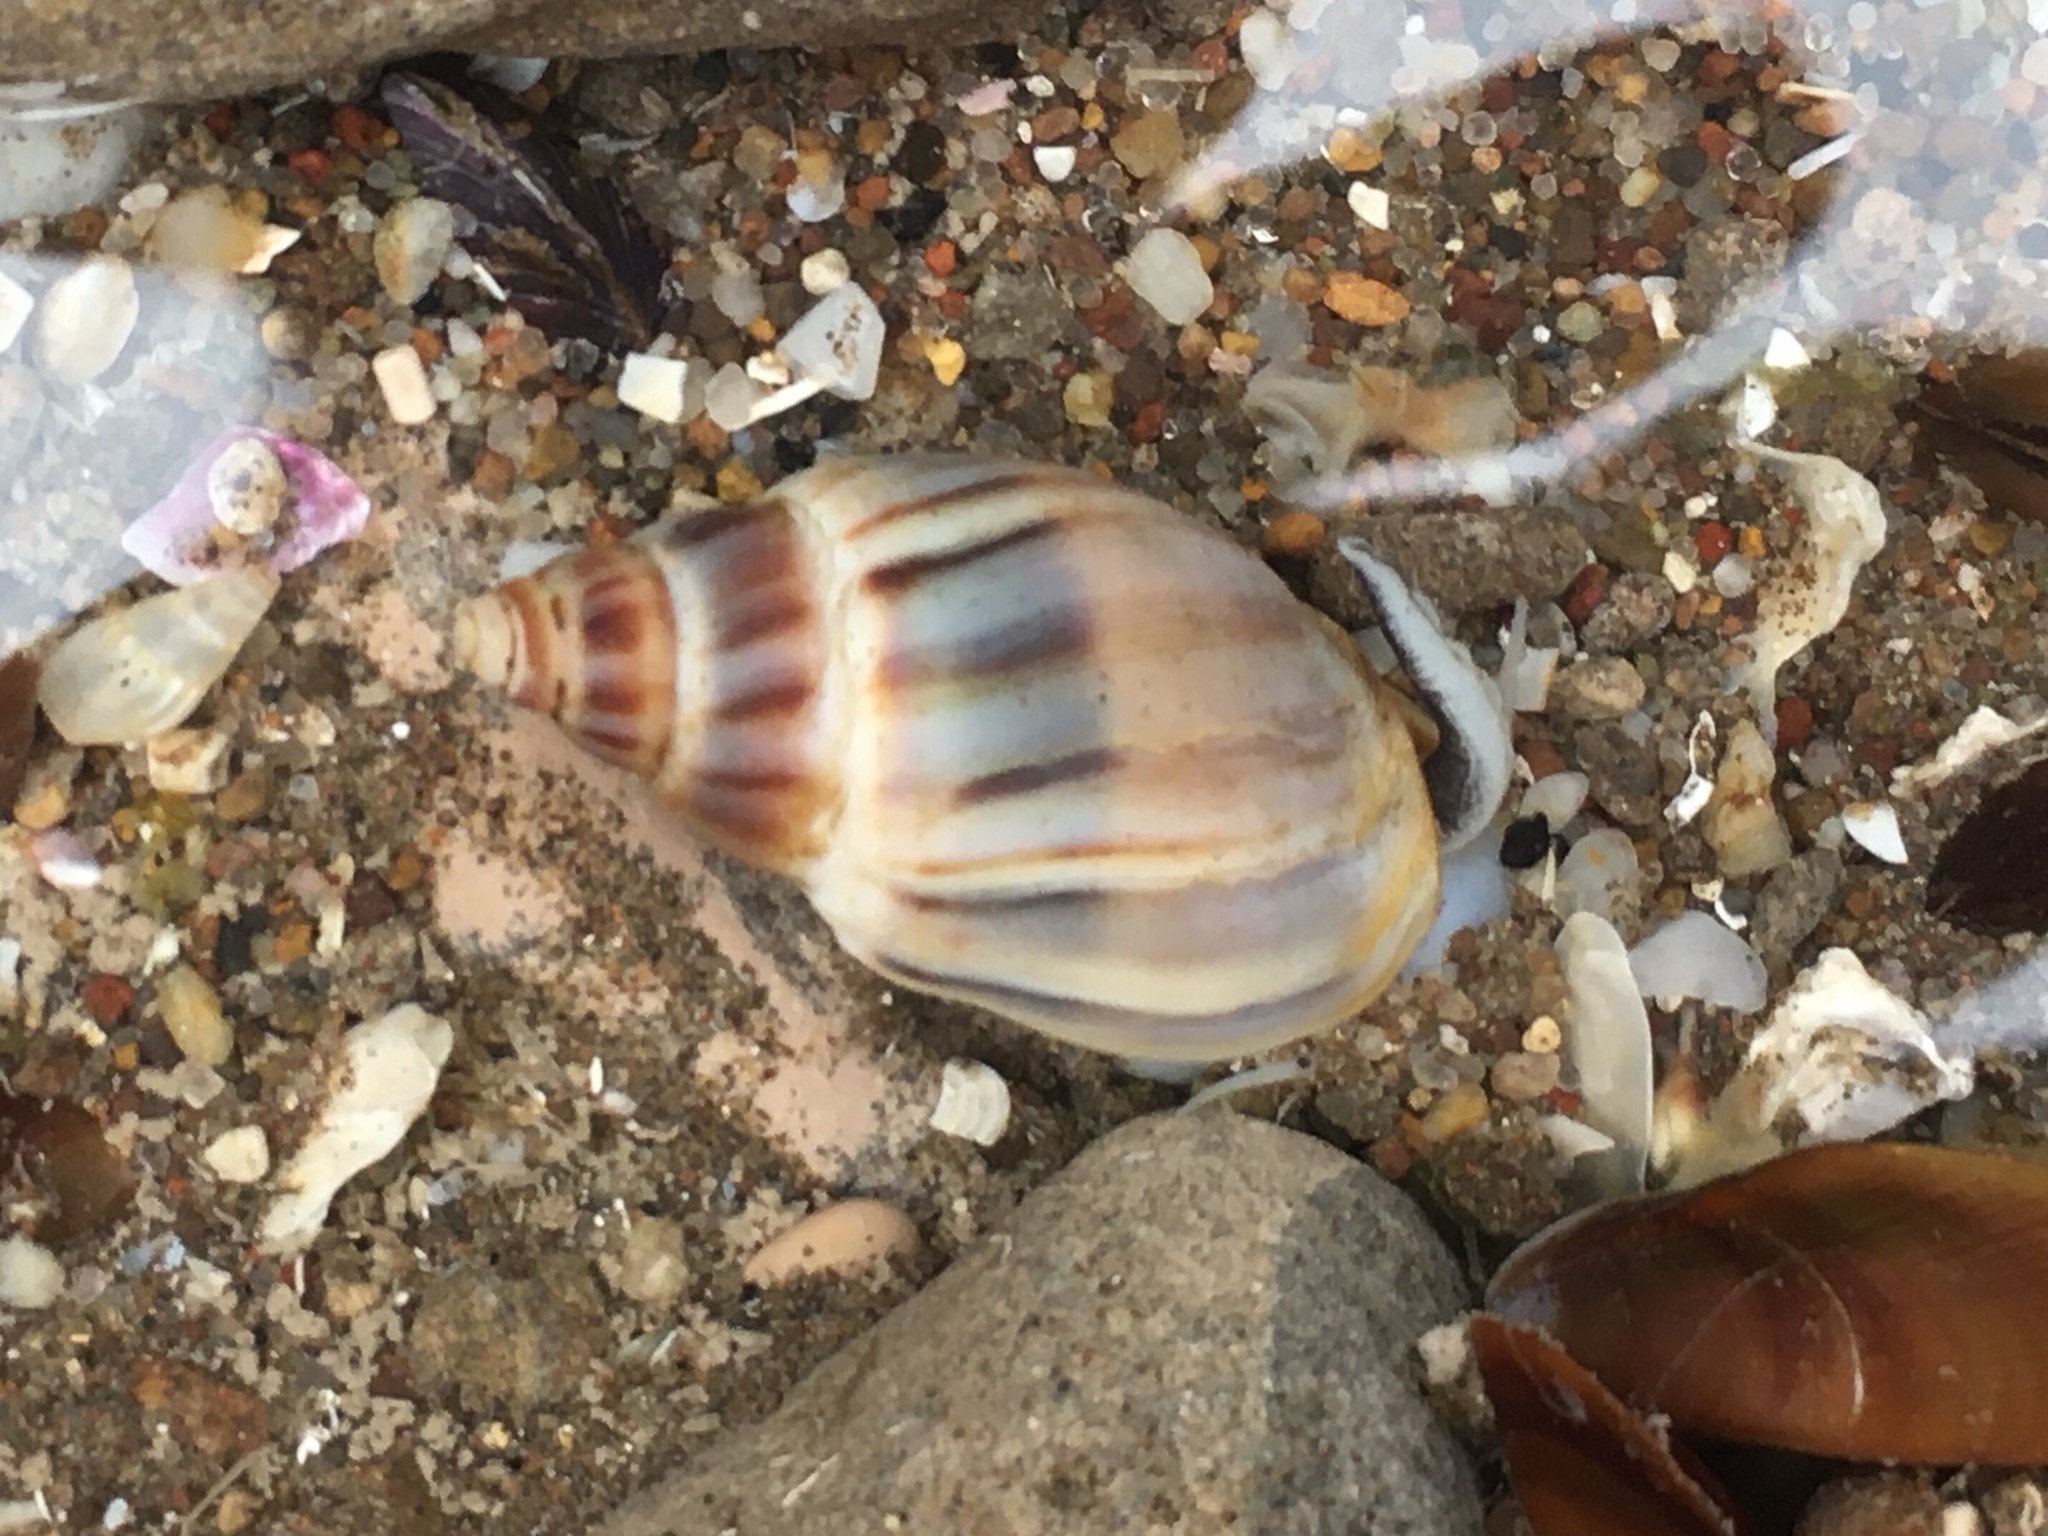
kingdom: Animalia
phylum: Mollusca
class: Gastropoda
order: Neogastropoda
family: Buccinanopsidae
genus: Buccinastrum
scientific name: Buccinastrum deforme
